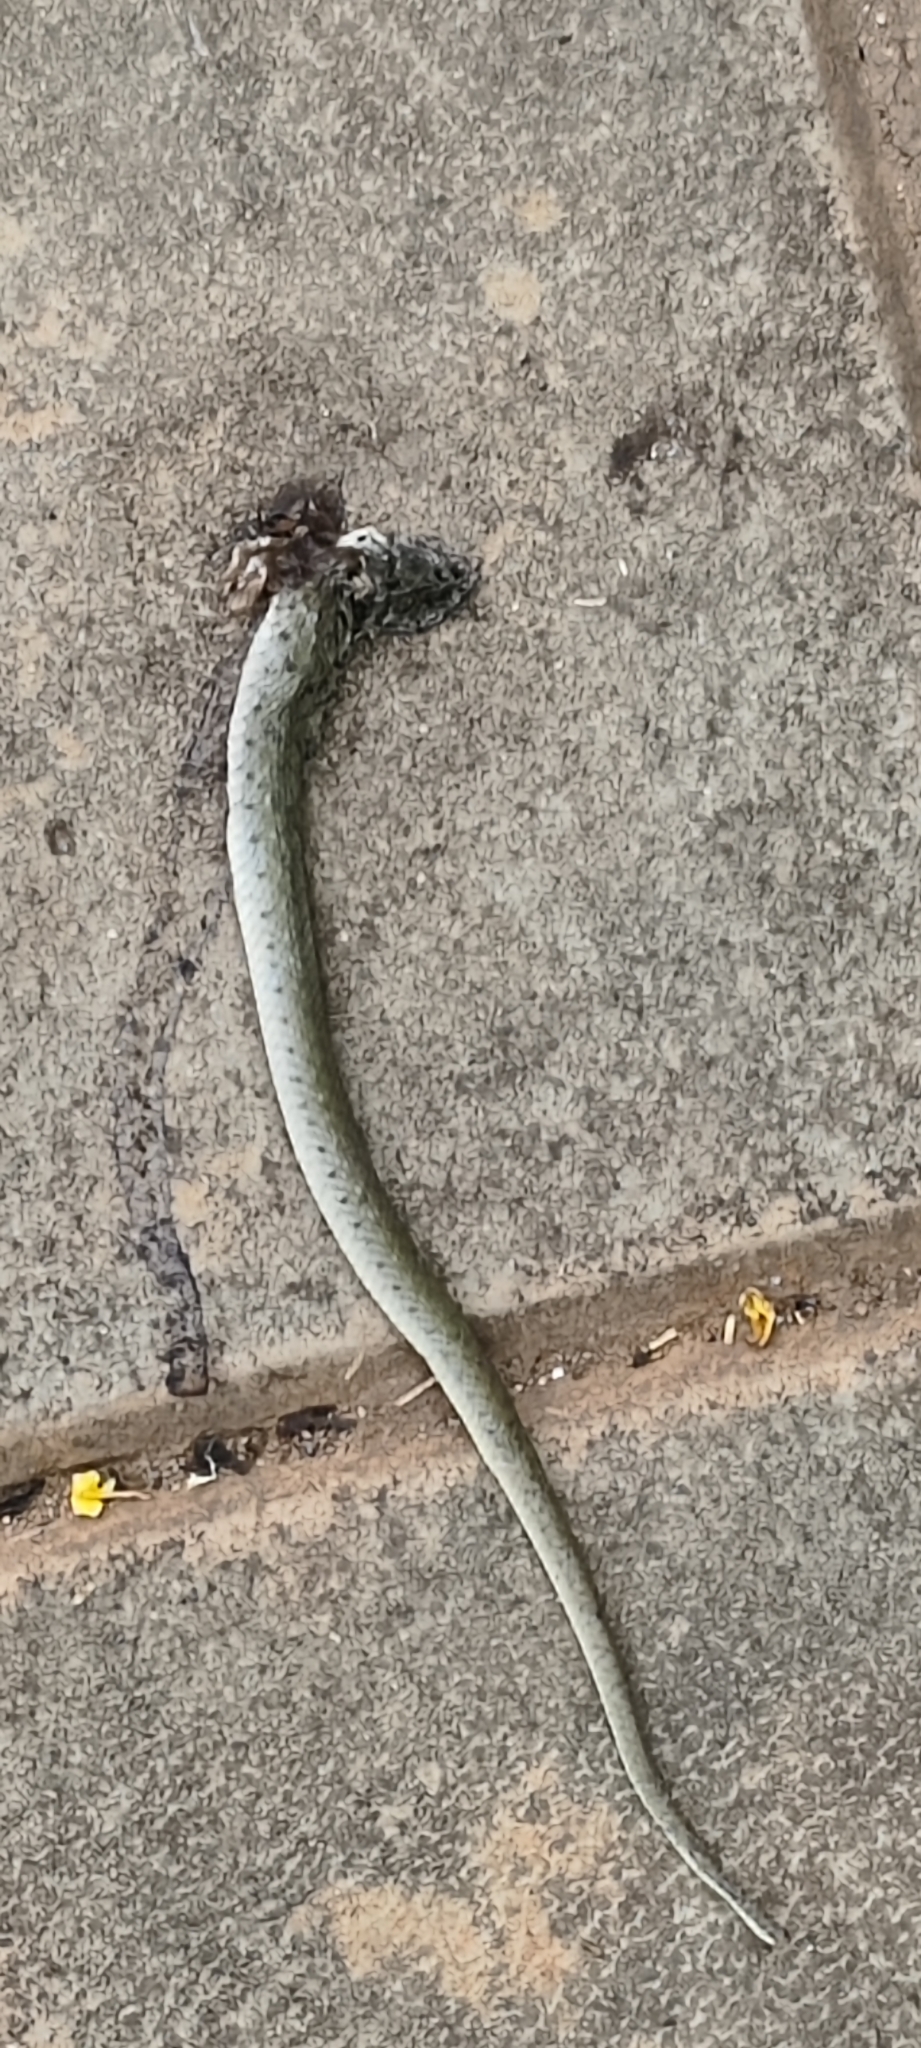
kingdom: Animalia
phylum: Chordata
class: Squamata
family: Colubridae
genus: Fowlea
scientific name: Fowlea piscator
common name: Asiatic water snake
